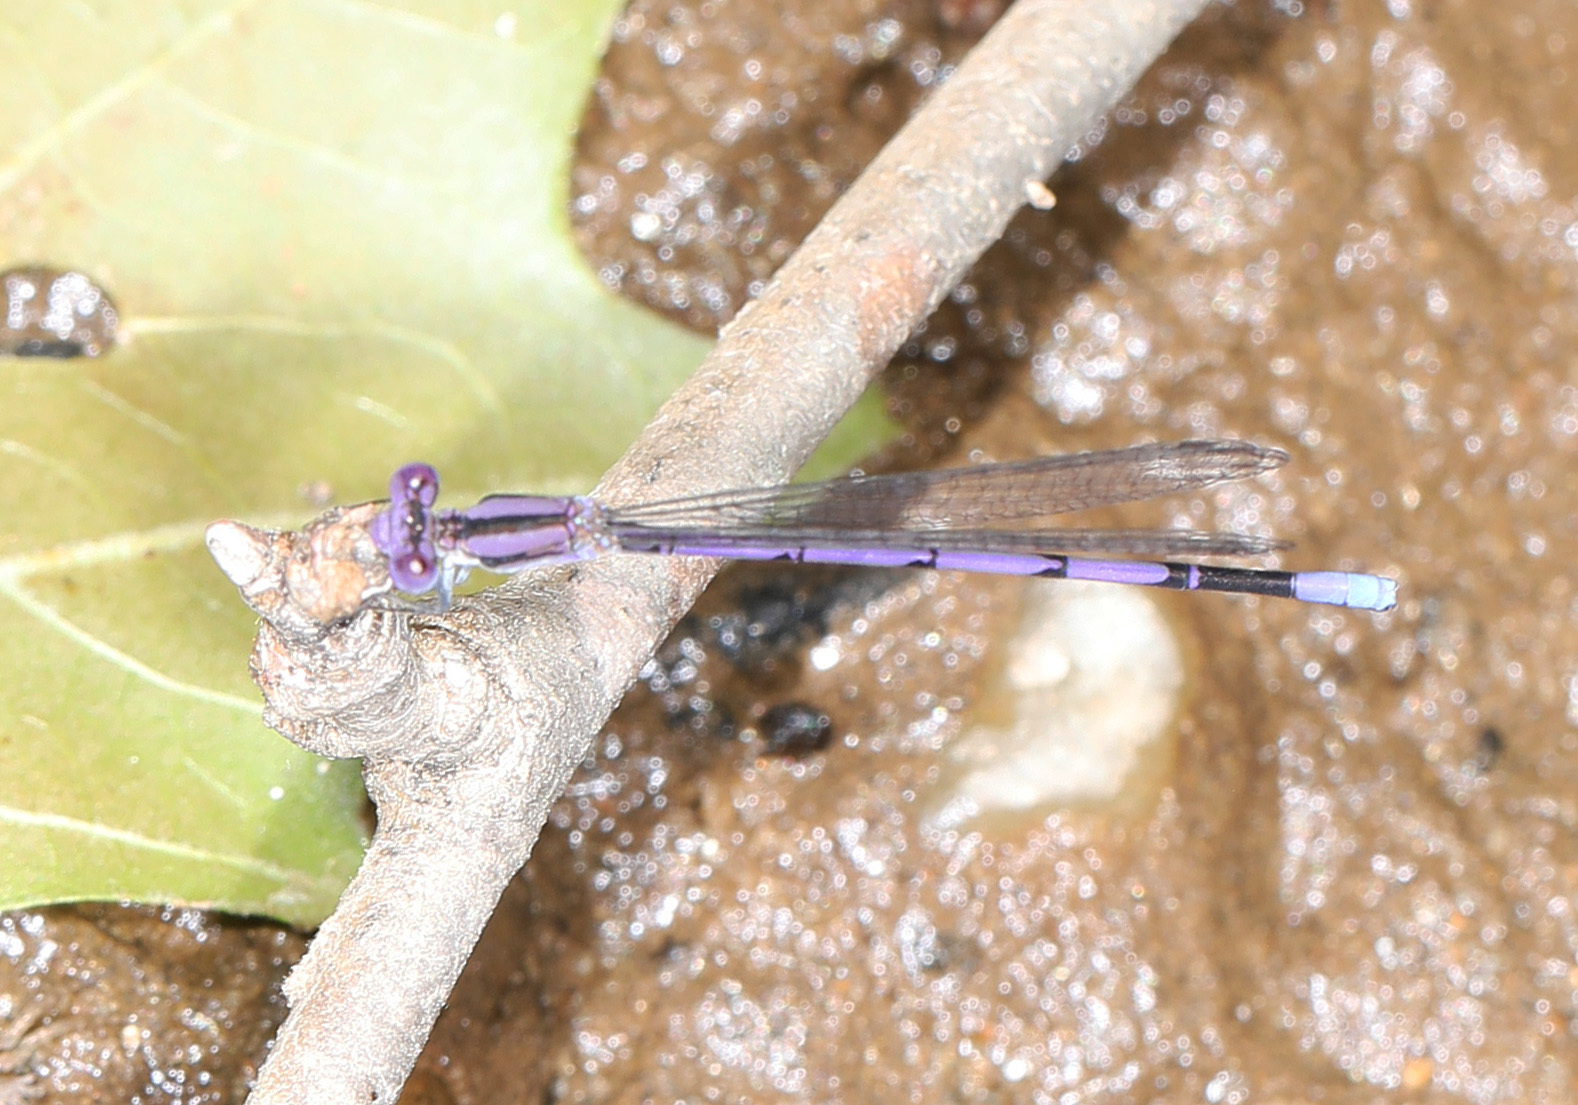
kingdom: Animalia
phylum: Arthropoda
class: Insecta
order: Odonata
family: Coenagrionidae
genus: Argia
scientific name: Argia fumipennis
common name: Variable dancer
